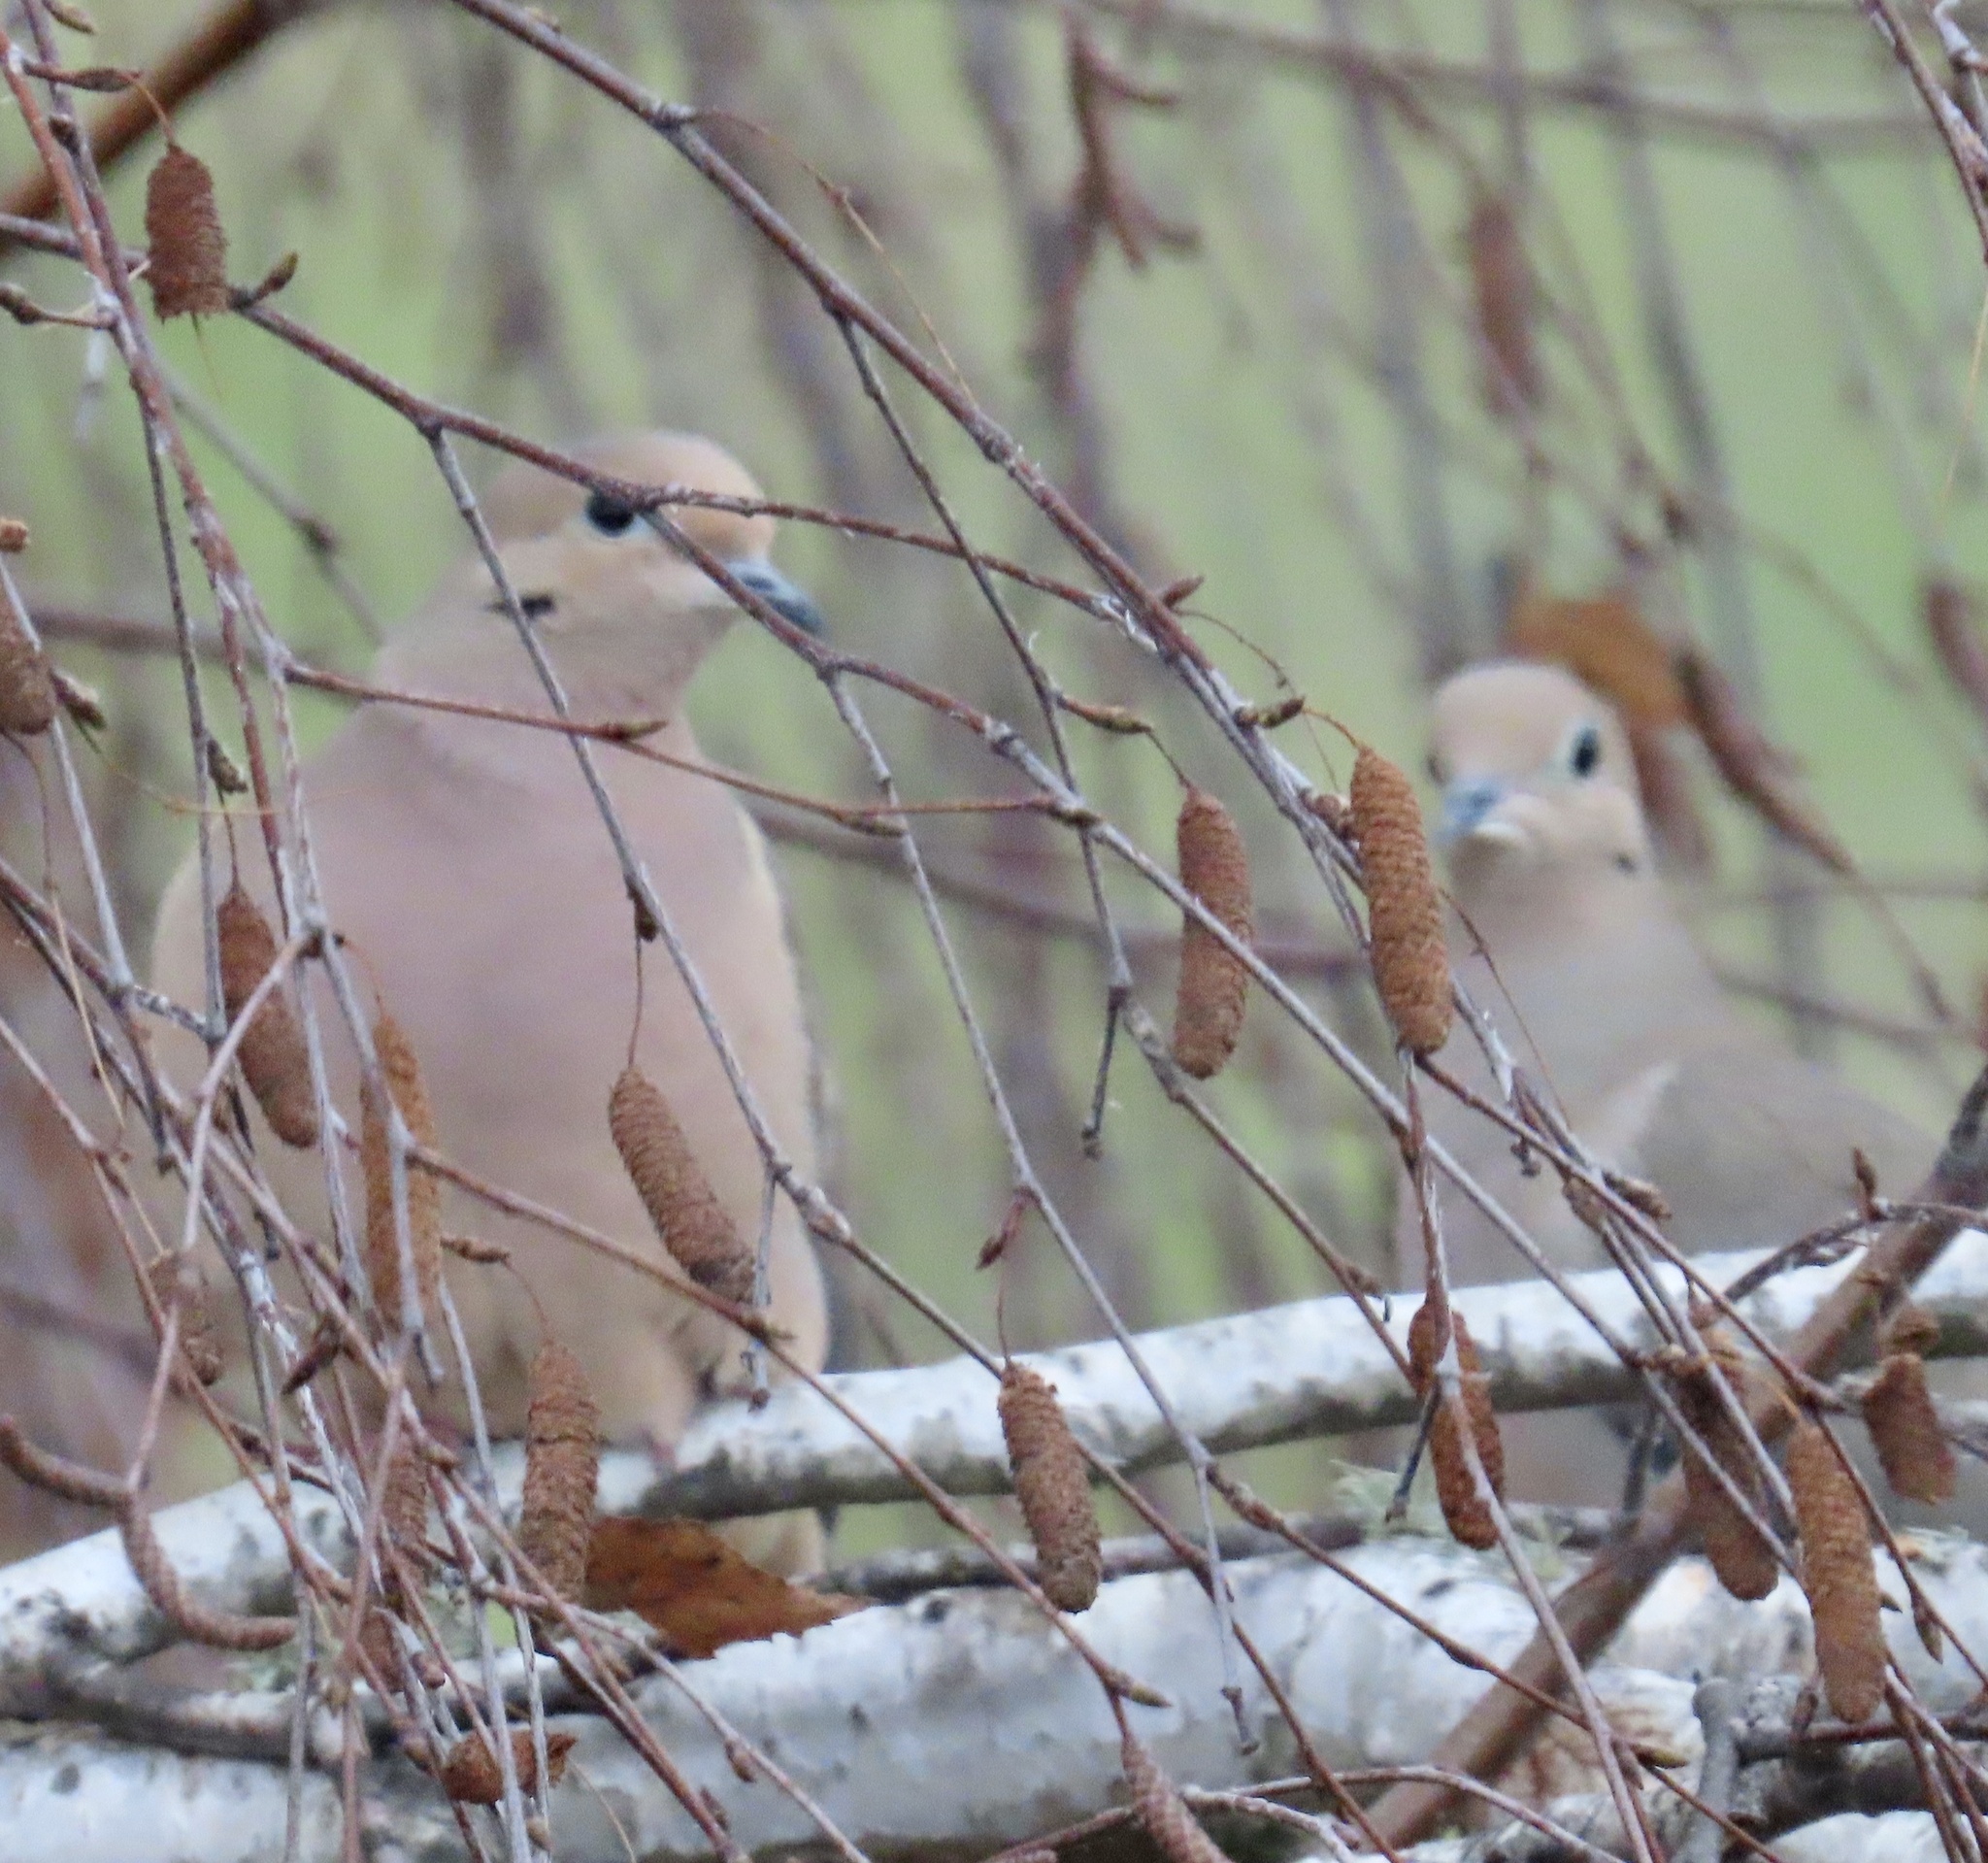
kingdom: Animalia
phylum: Chordata
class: Aves
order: Columbiformes
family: Columbidae
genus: Zenaida
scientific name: Zenaida macroura
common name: Mourning dove
